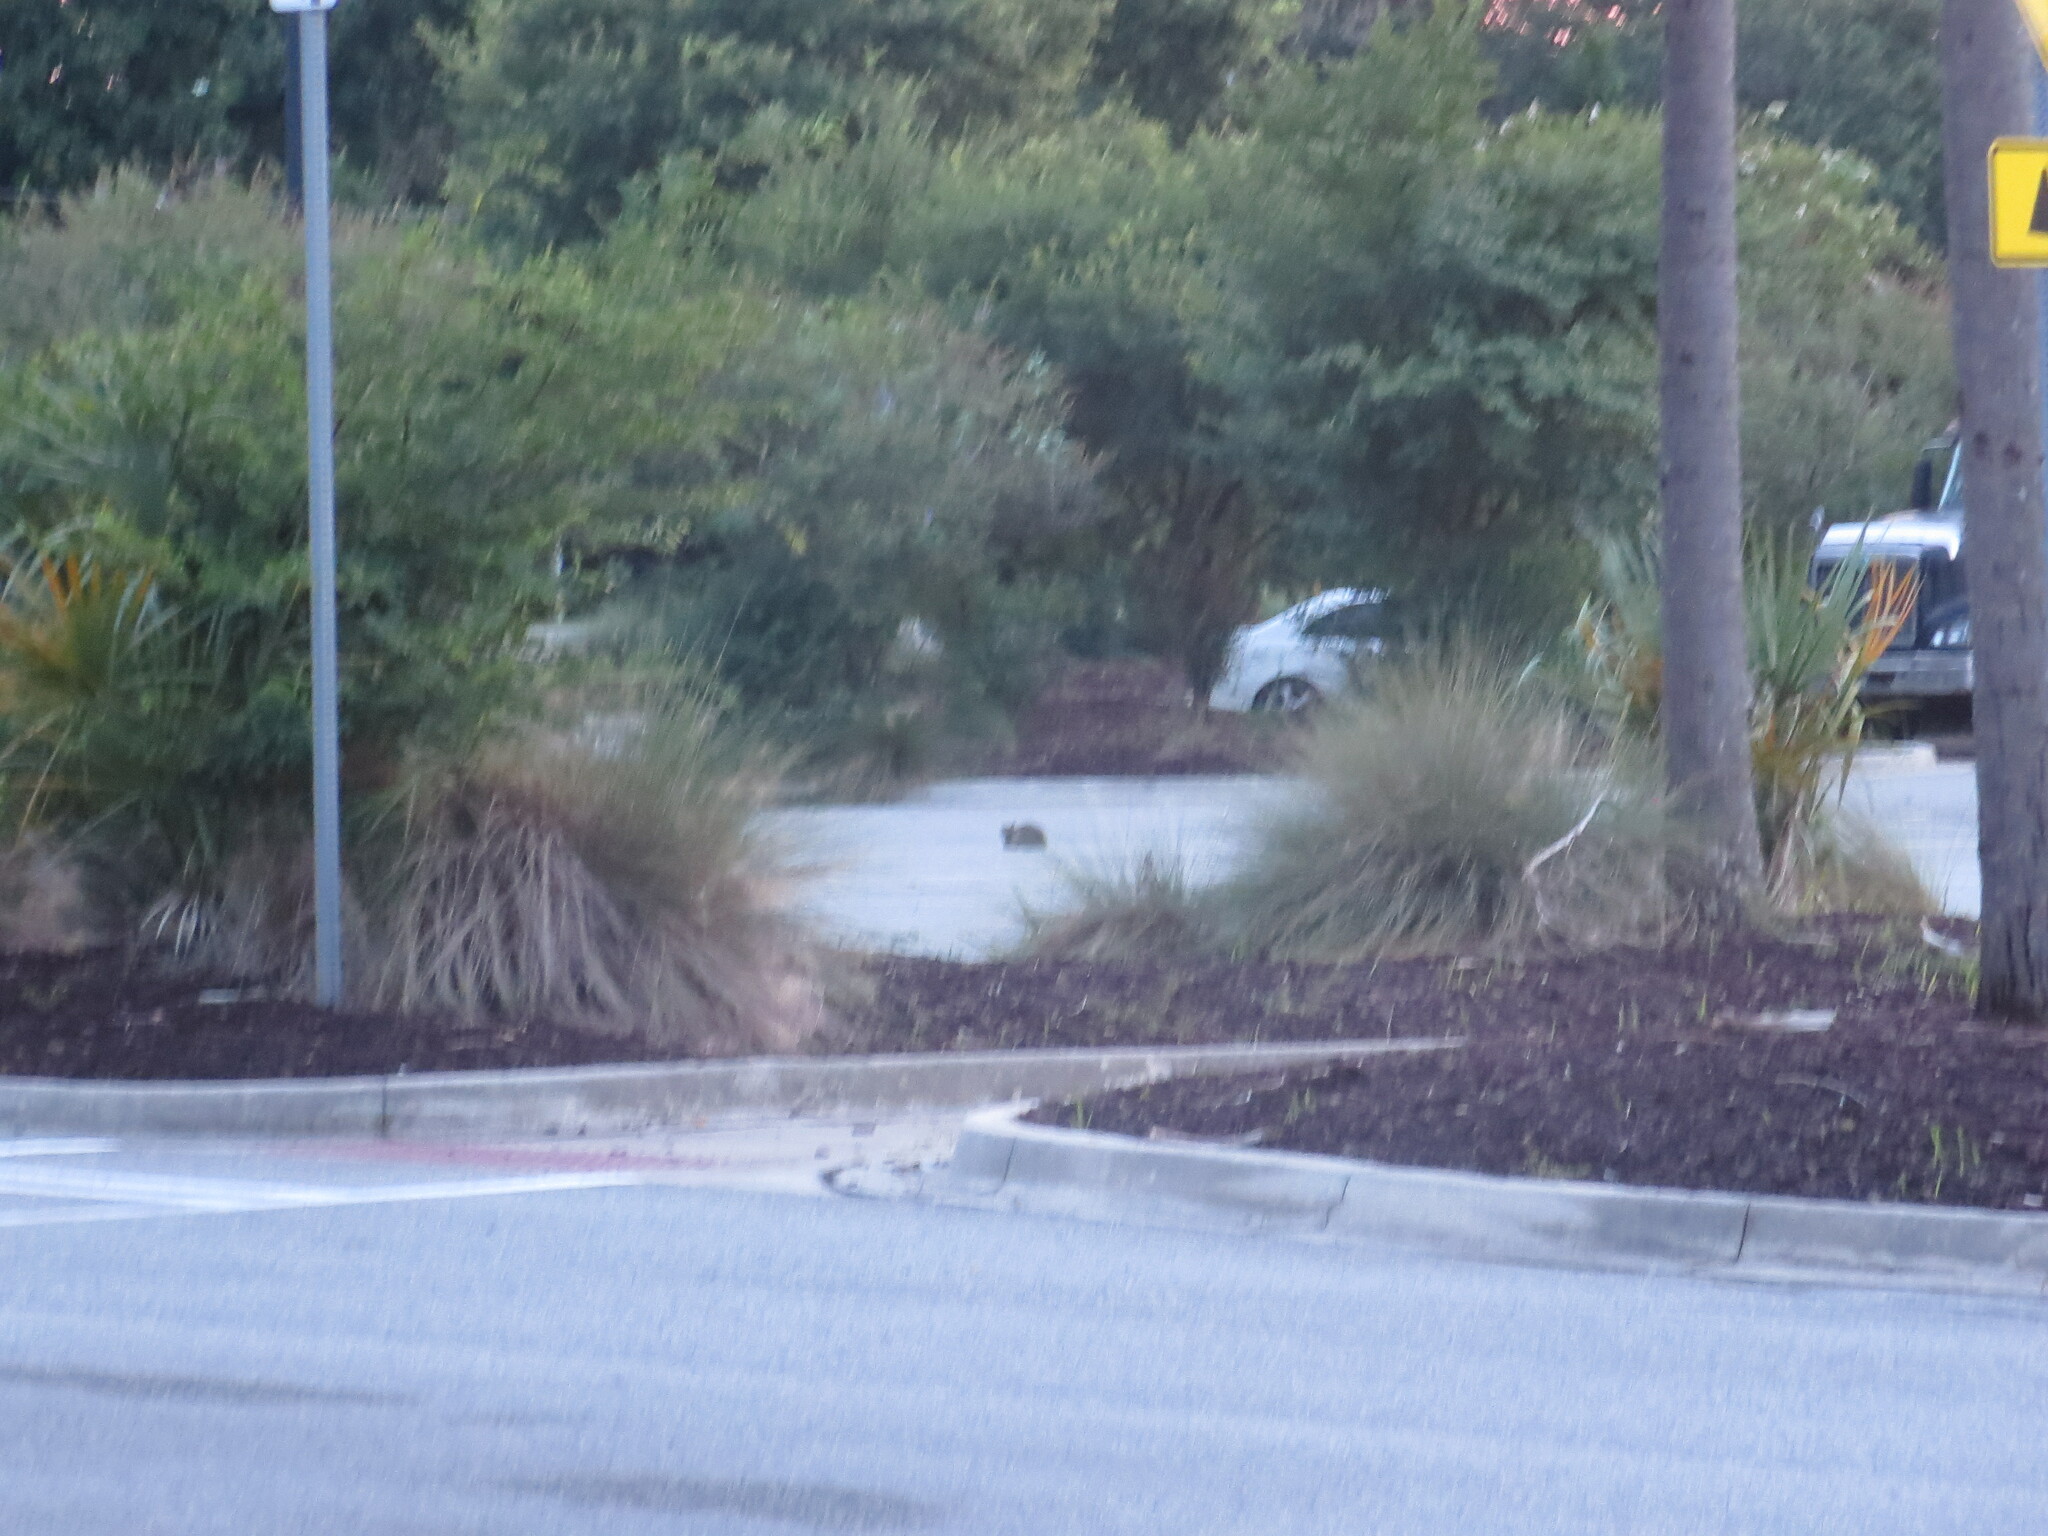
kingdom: Animalia
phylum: Chordata
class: Mammalia
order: Carnivora
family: Felidae
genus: Felis
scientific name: Felis catus
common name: Domestic cat
